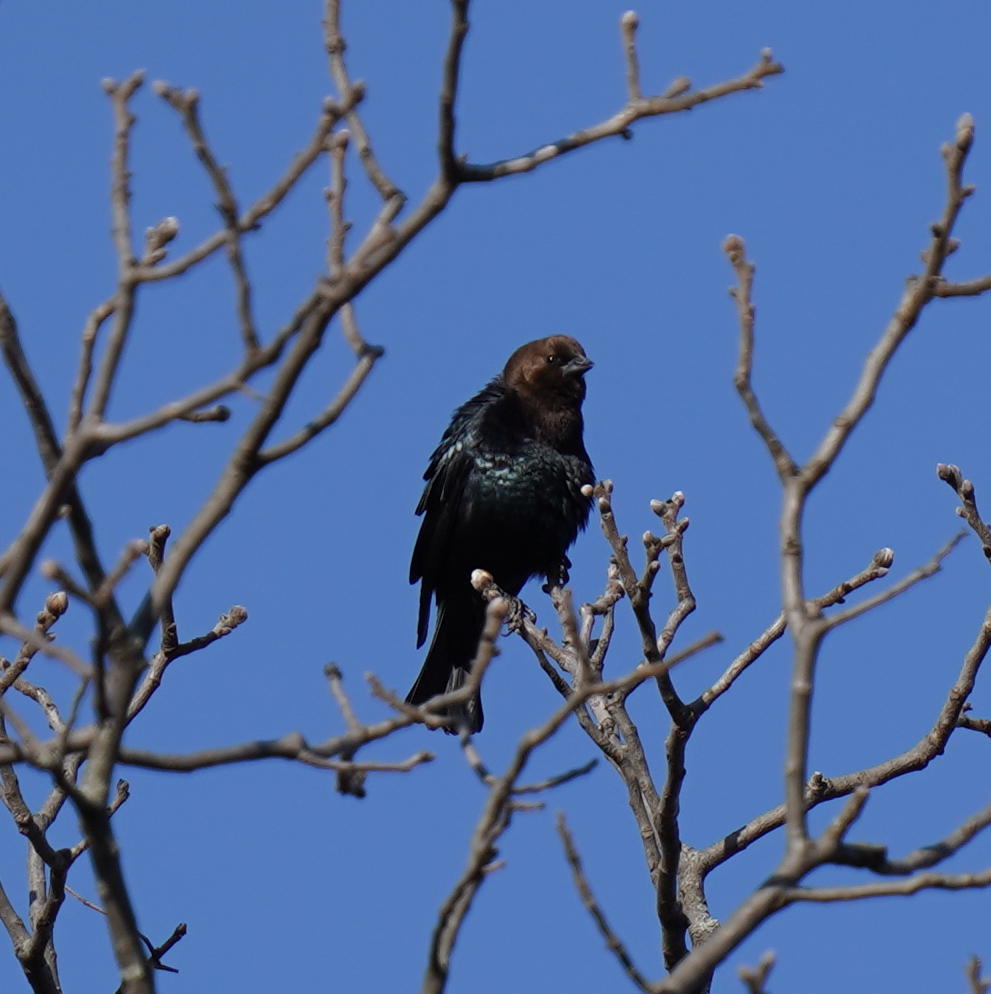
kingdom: Animalia
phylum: Chordata
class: Aves
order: Passeriformes
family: Icteridae
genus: Molothrus
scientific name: Molothrus ater
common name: Brown-headed cowbird
